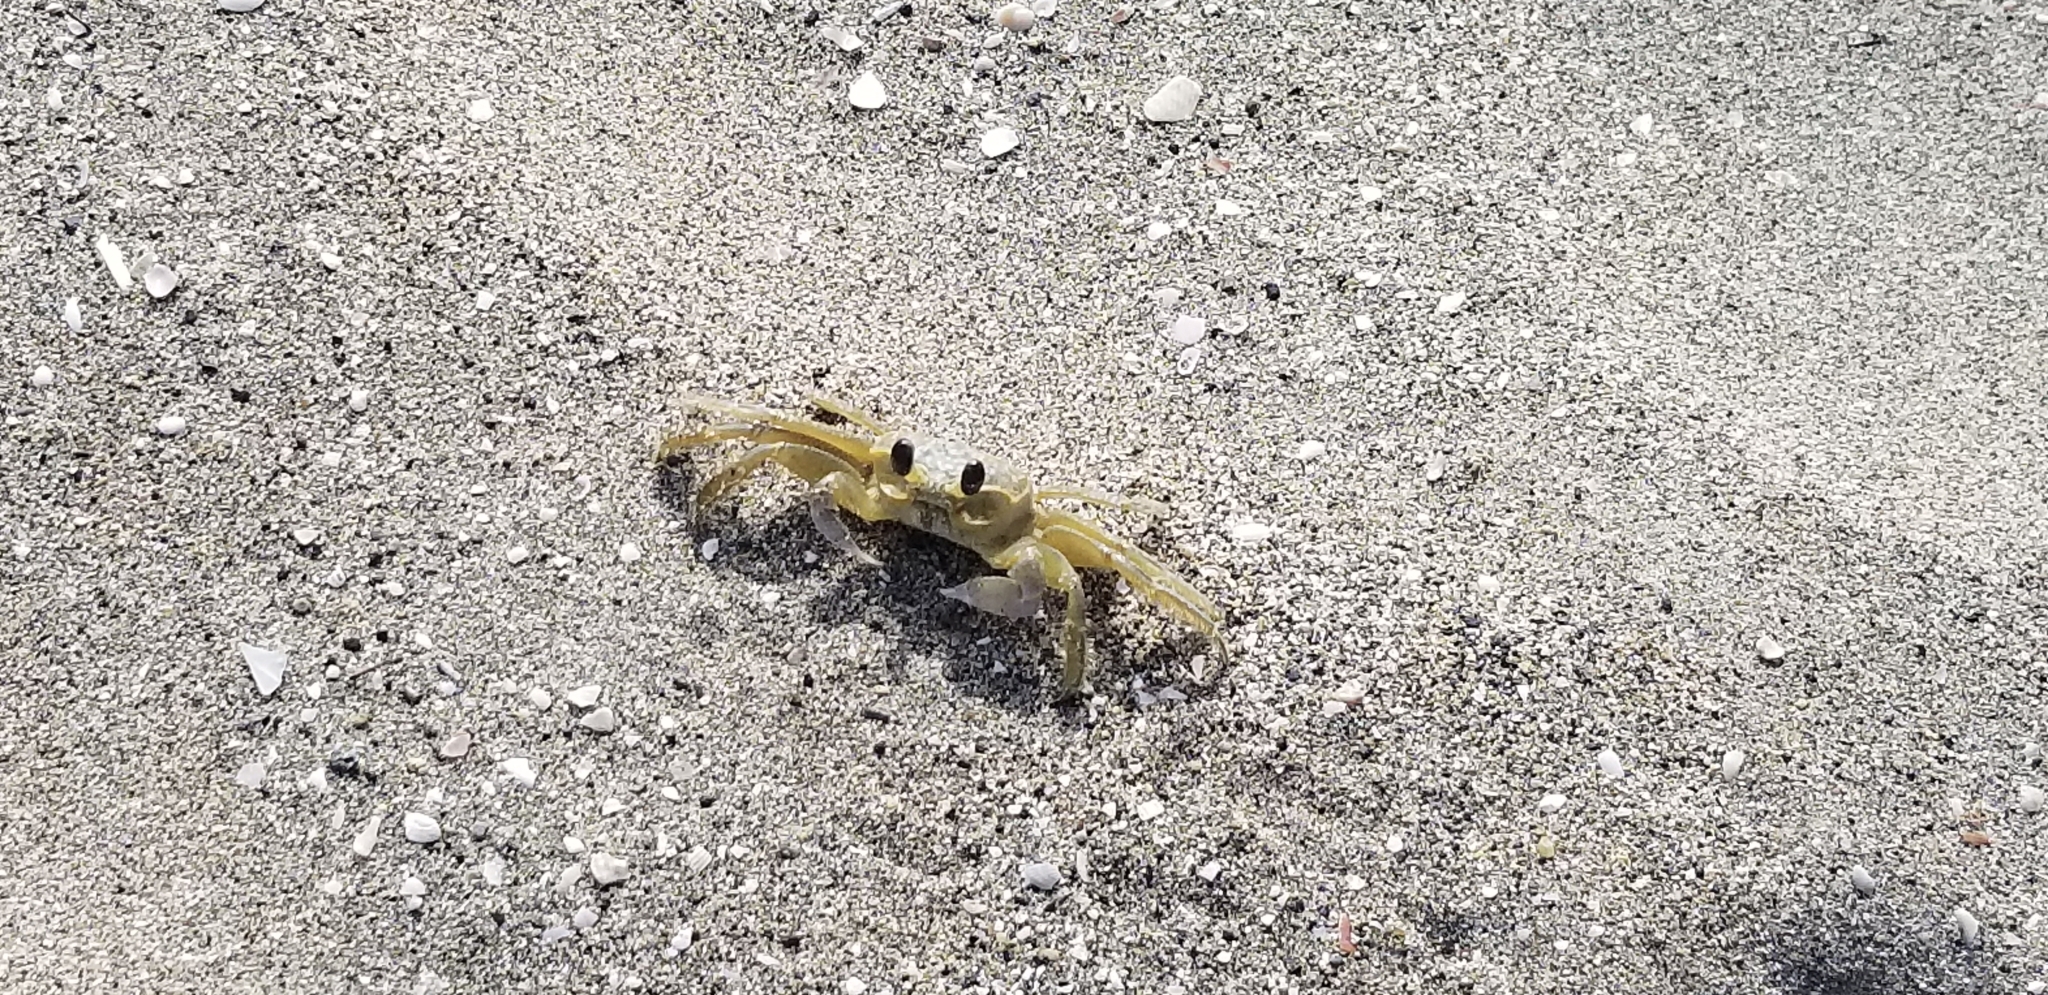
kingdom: Animalia
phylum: Arthropoda
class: Malacostraca
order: Decapoda
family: Ocypodidae
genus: Ocypode
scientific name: Ocypode quadrata
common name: Ghost crab
